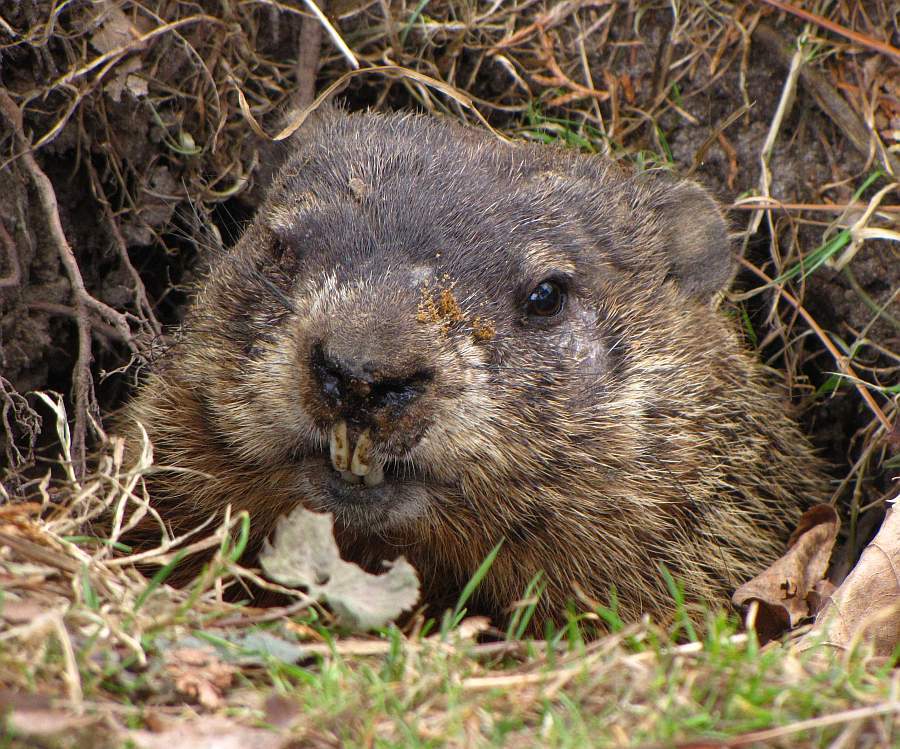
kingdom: Animalia
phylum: Chordata
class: Mammalia
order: Rodentia
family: Sciuridae
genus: Marmota
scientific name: Marmota monax
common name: Groundhog
